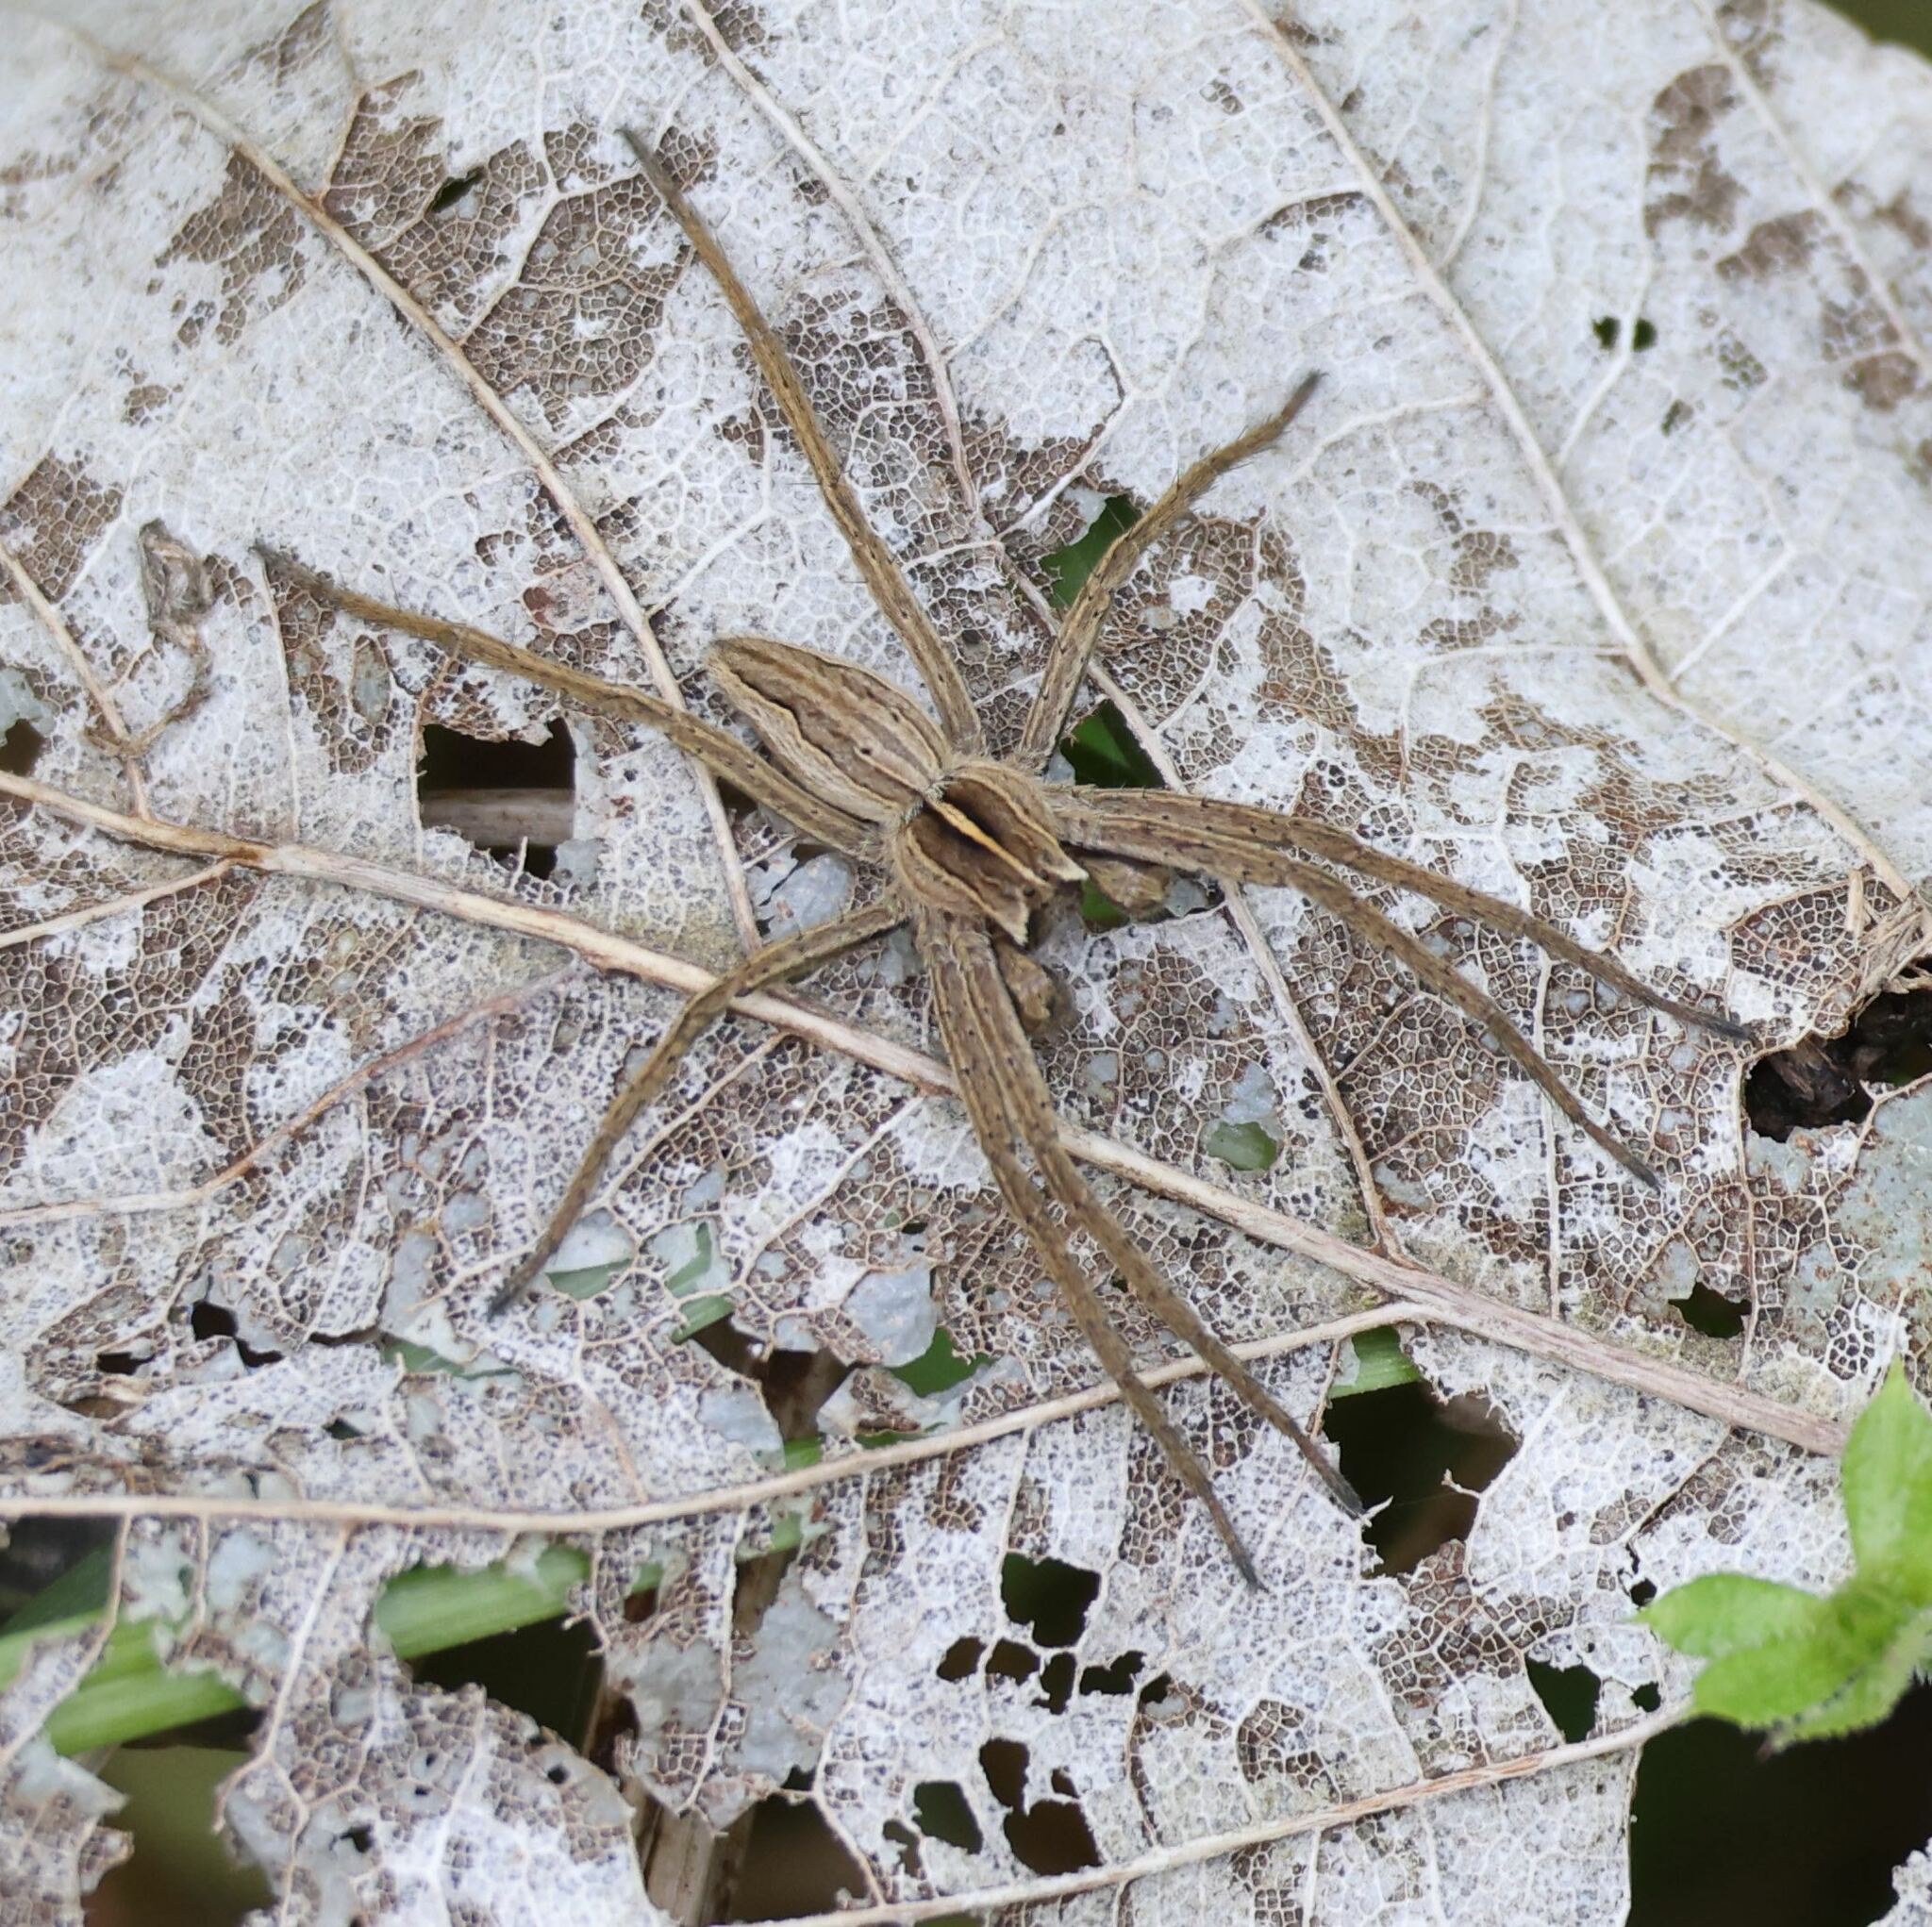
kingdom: Animalia
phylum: Arthropoda
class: Arachnida
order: Araneae
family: Pisauridae
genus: Pisaura
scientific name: Pisaura mirabilis
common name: Tent spider
